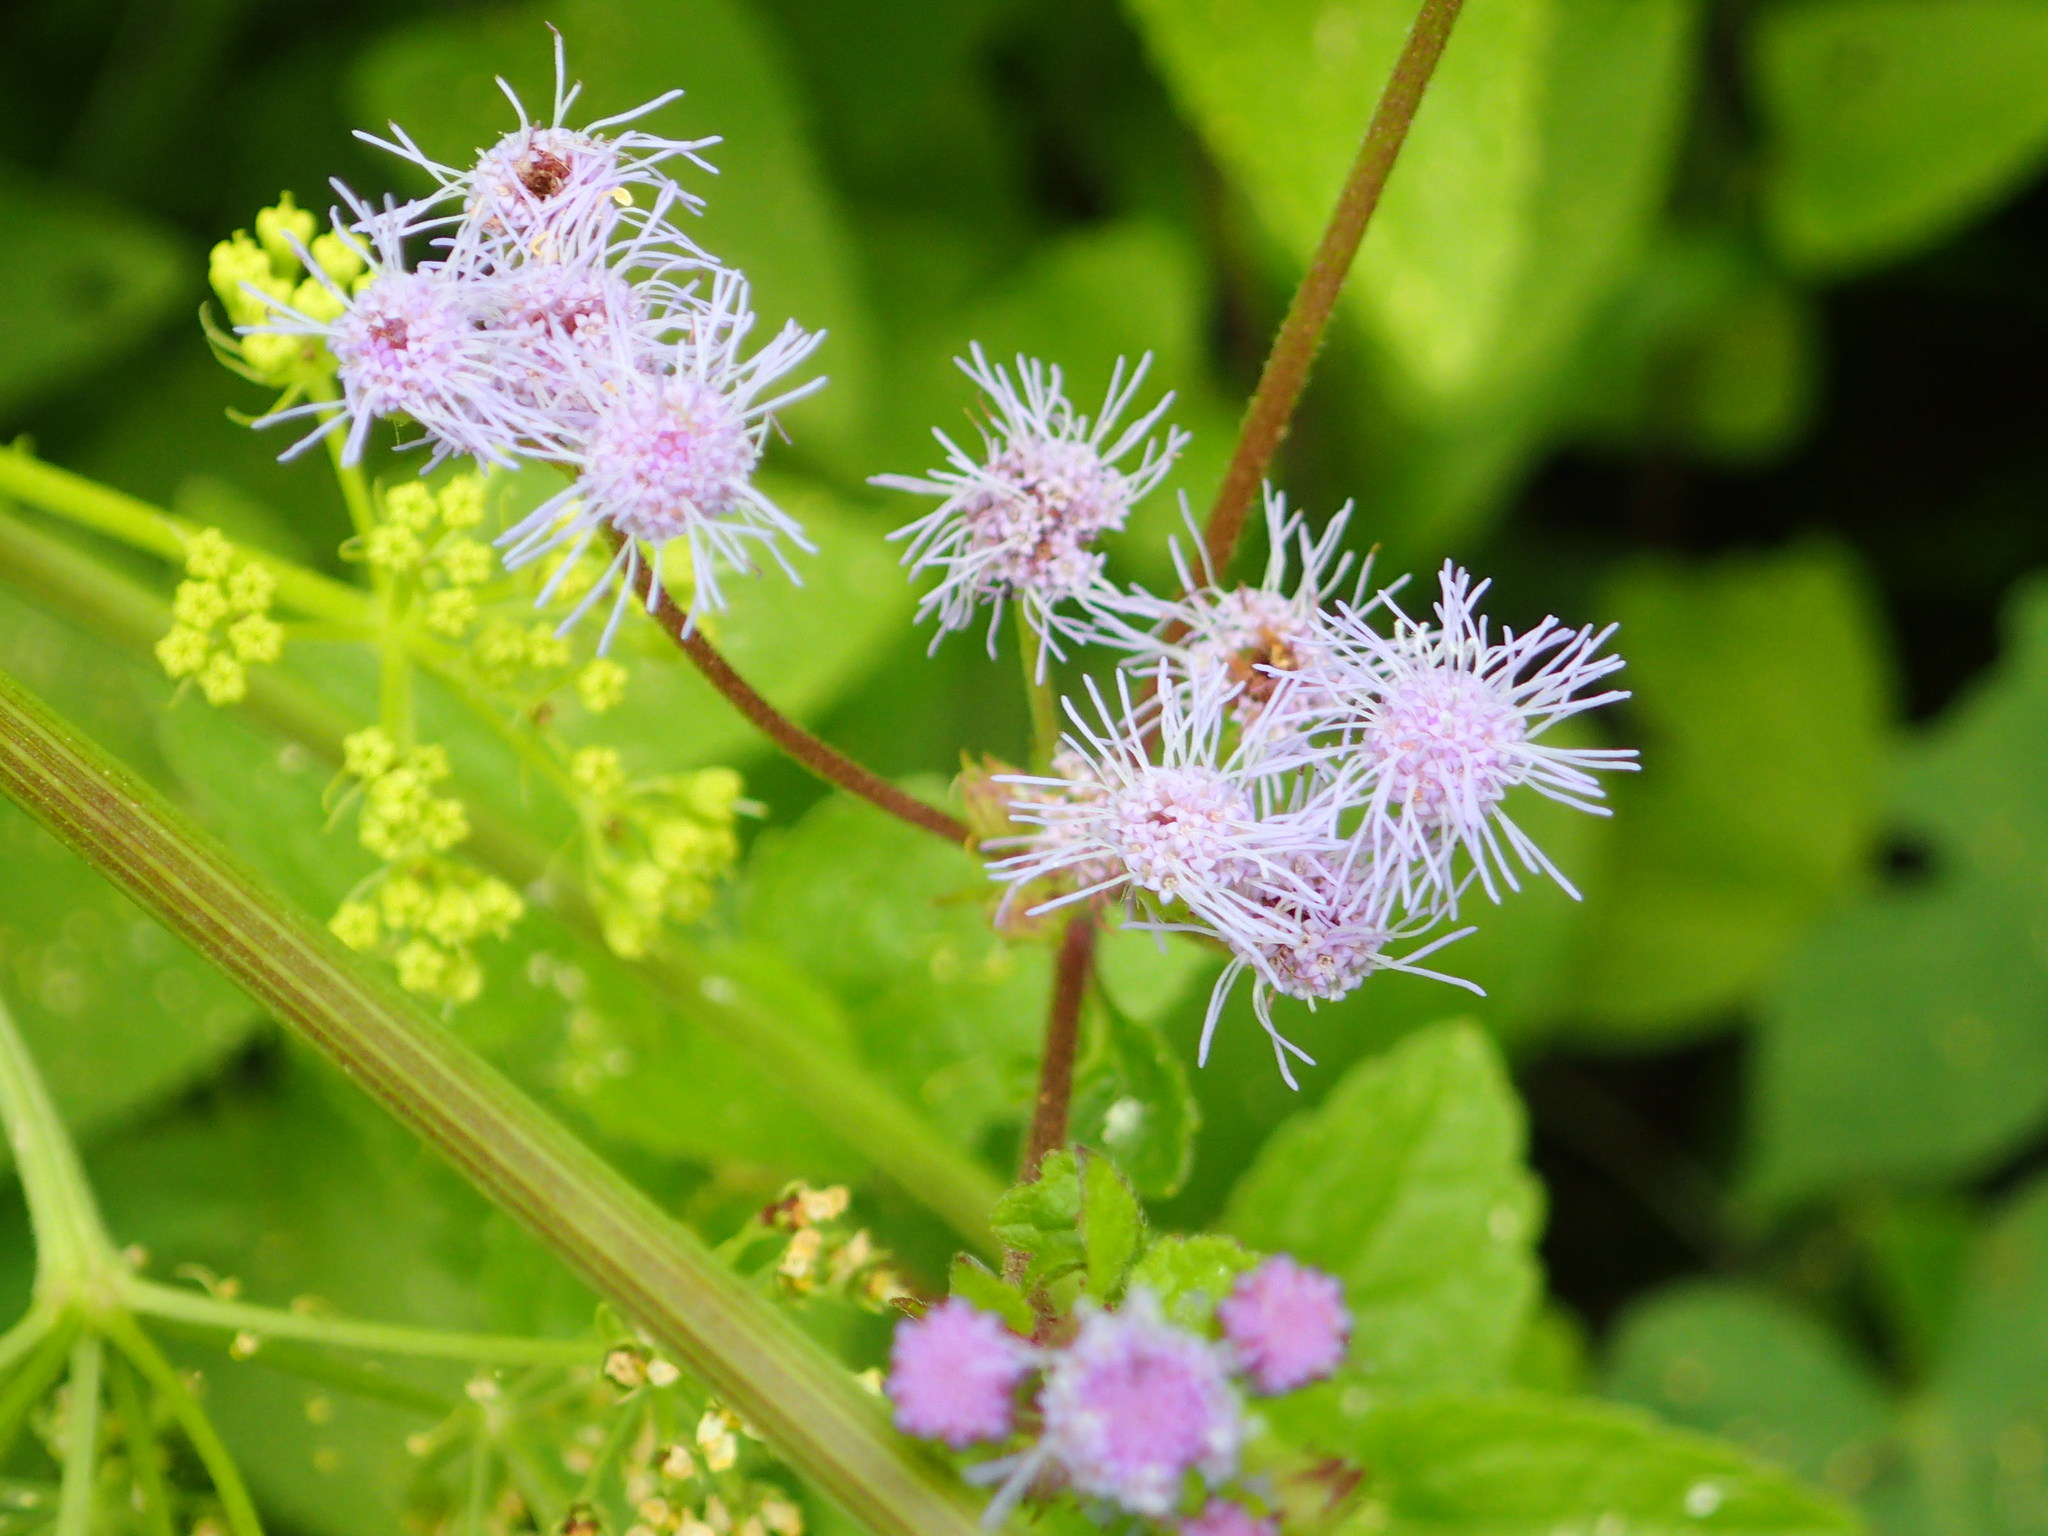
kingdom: Plantae
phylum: Tracheophyta
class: Magnoliopsida
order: Asterales
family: Asteraceae
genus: Conoclinium
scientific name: Conoclinium coelestinum
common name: Blue mistflower
